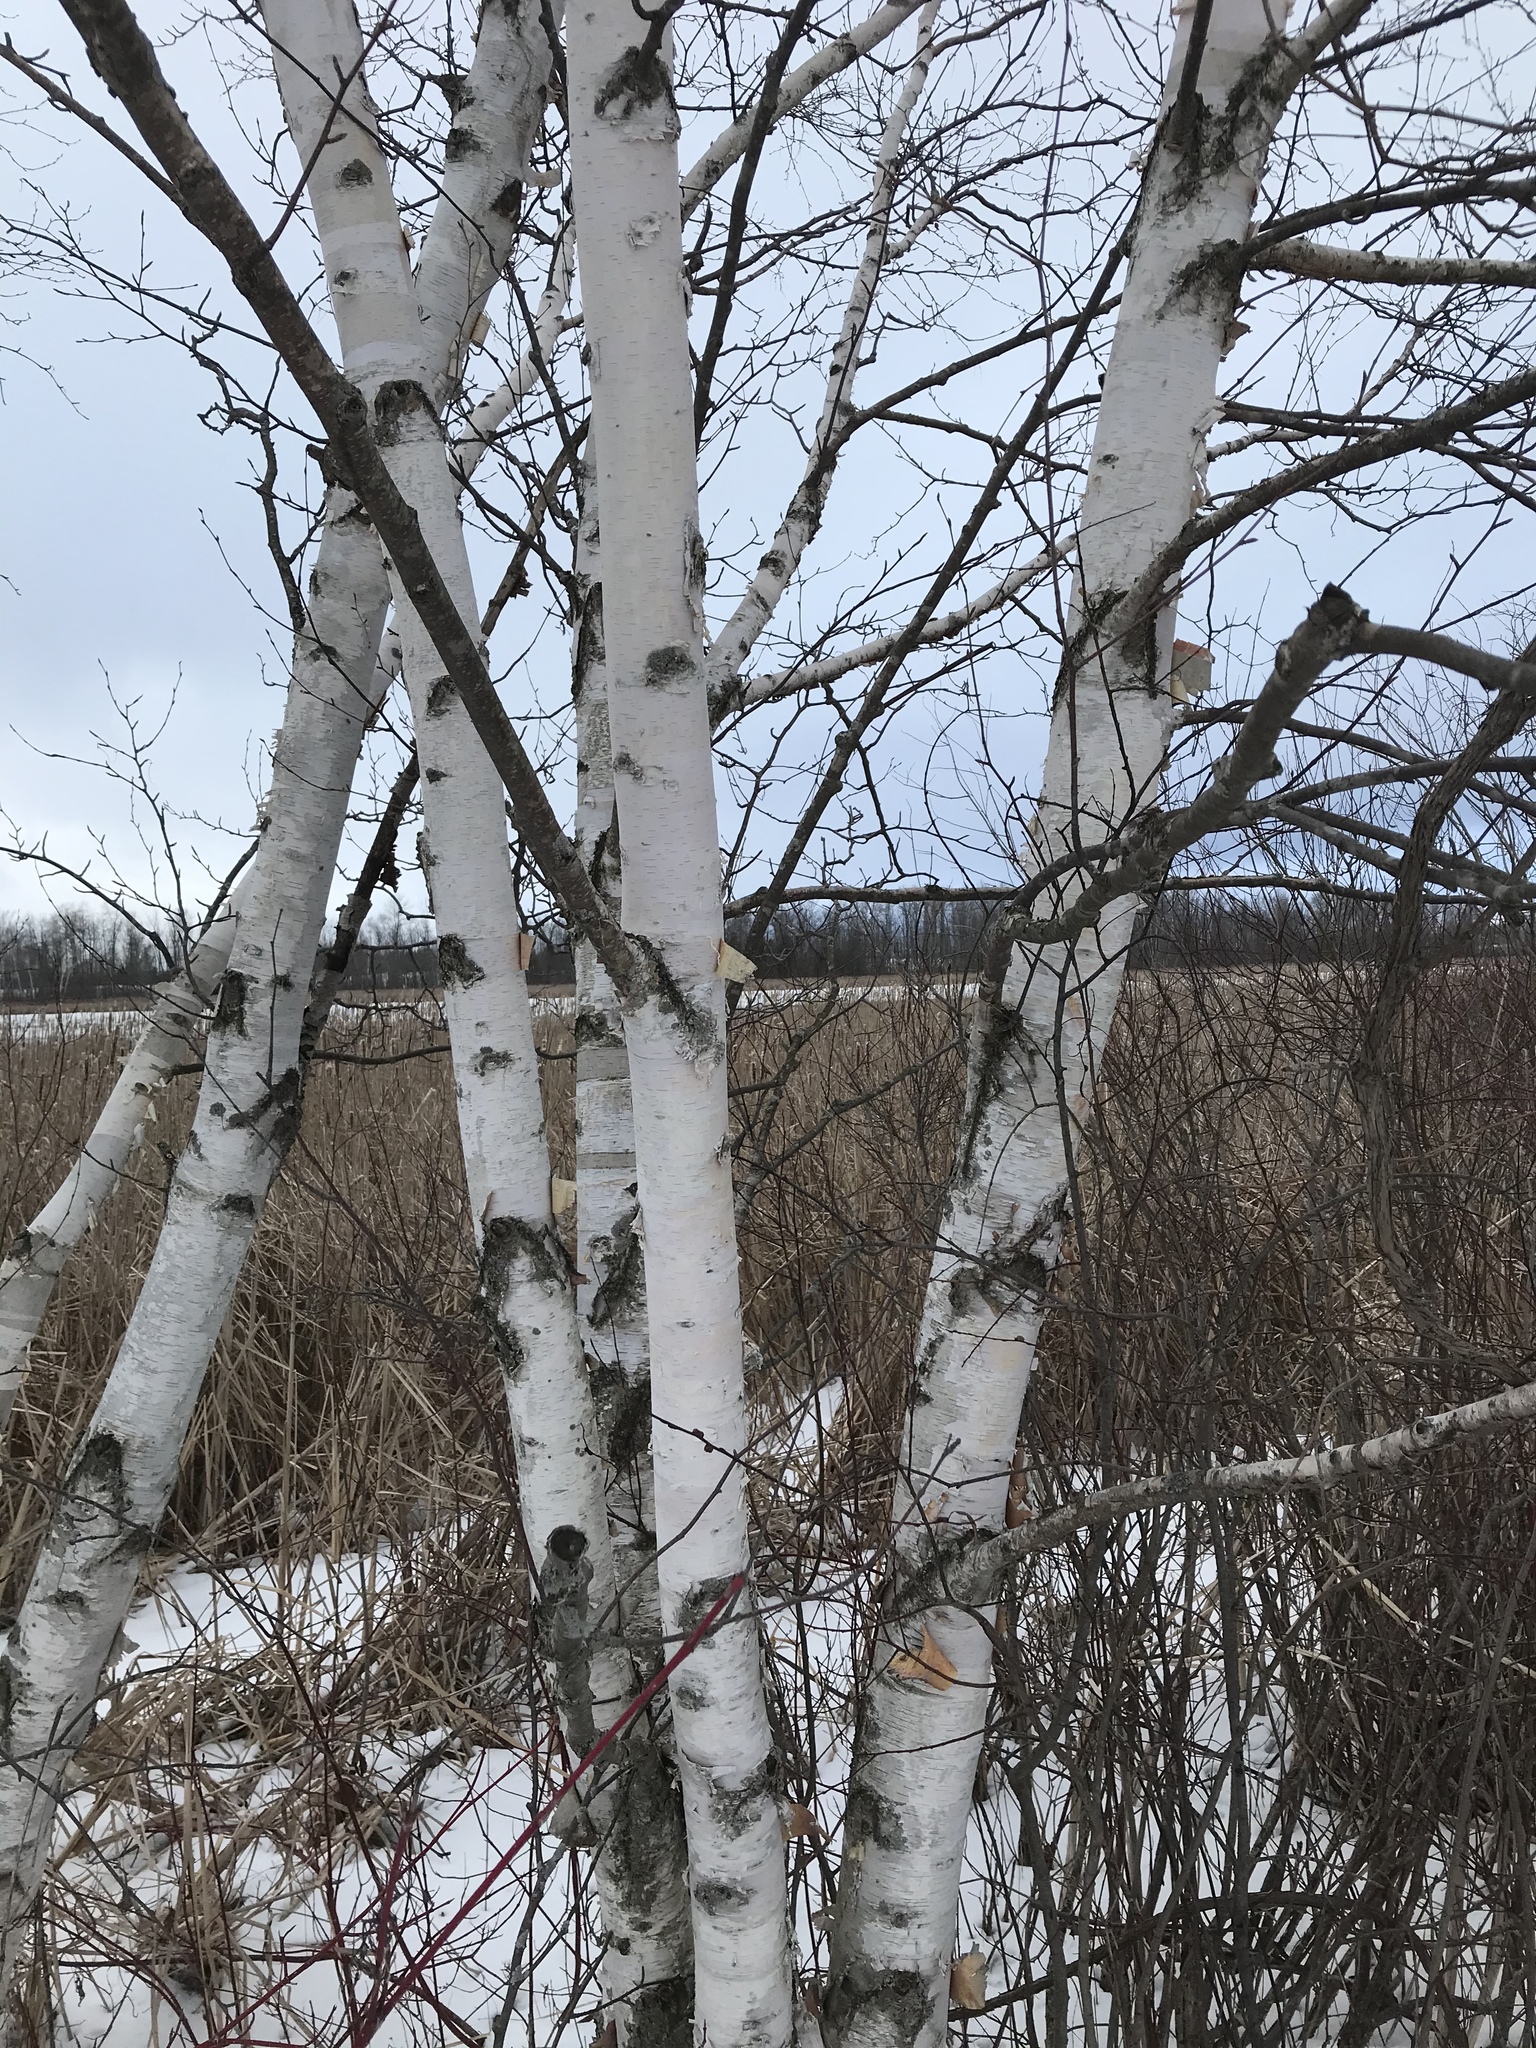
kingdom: Plantae
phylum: Tracheophyta
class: Magnoliopsida
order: Fagales
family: Betulaceae
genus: Betula
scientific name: Betula papyrifera
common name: Paper birch
